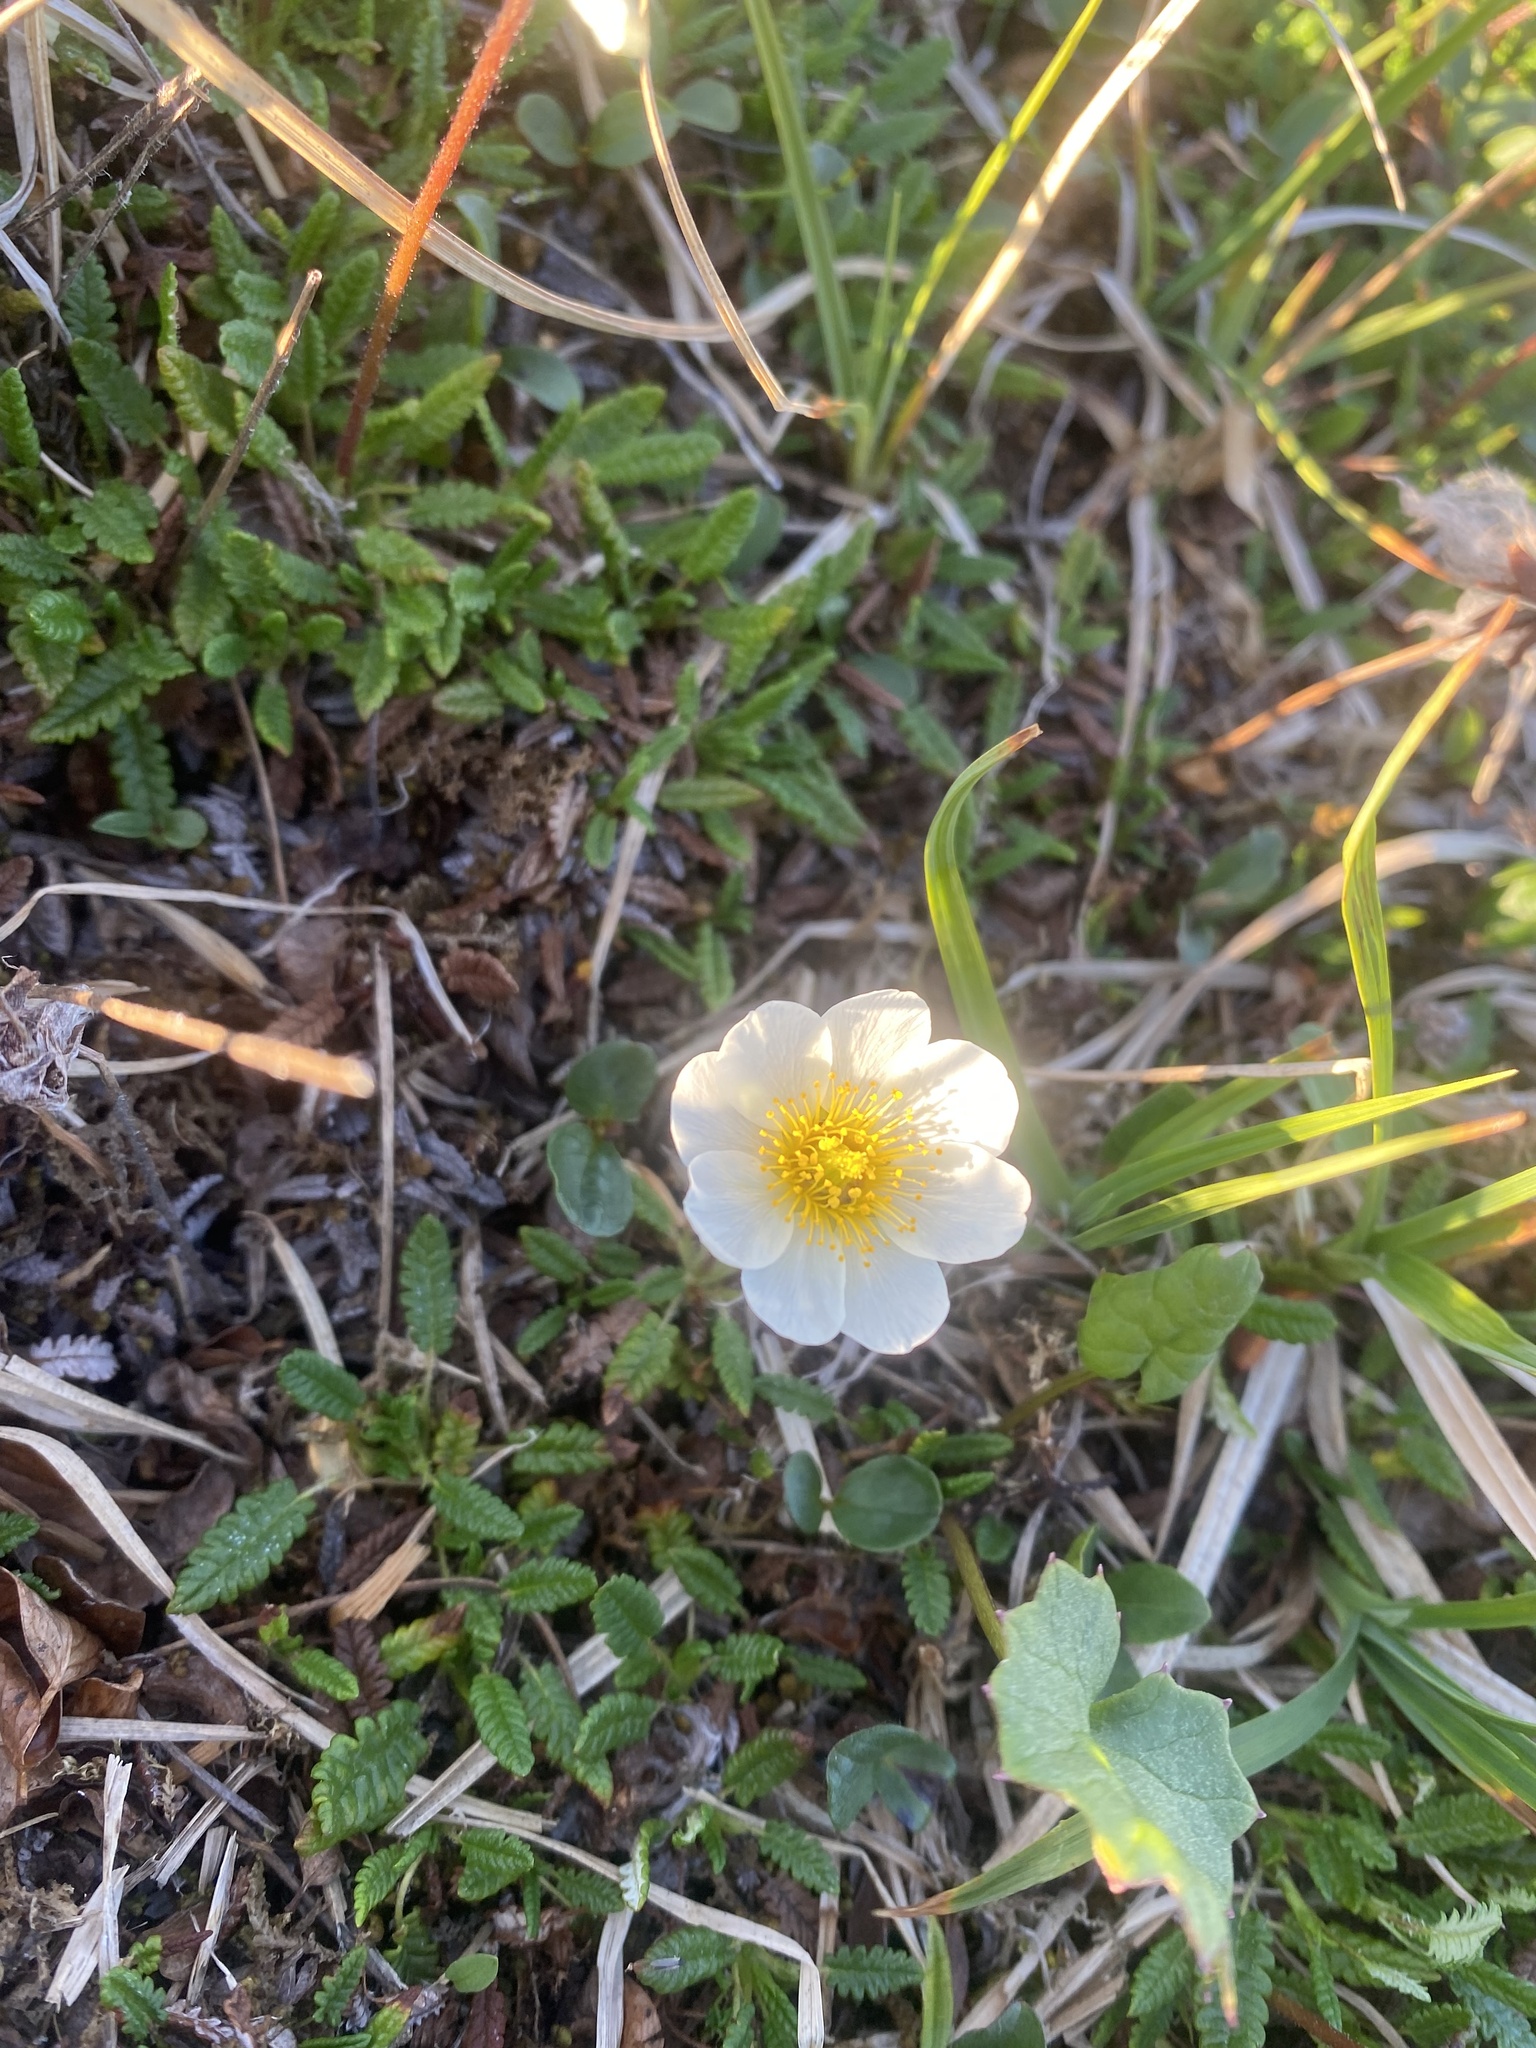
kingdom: Plantae
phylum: Tracheophyta
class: Magnoliopsida
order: Rosales
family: Rosaceae
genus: Dryas
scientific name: Dryas octopetala
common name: Eight-petal mountain-avens
